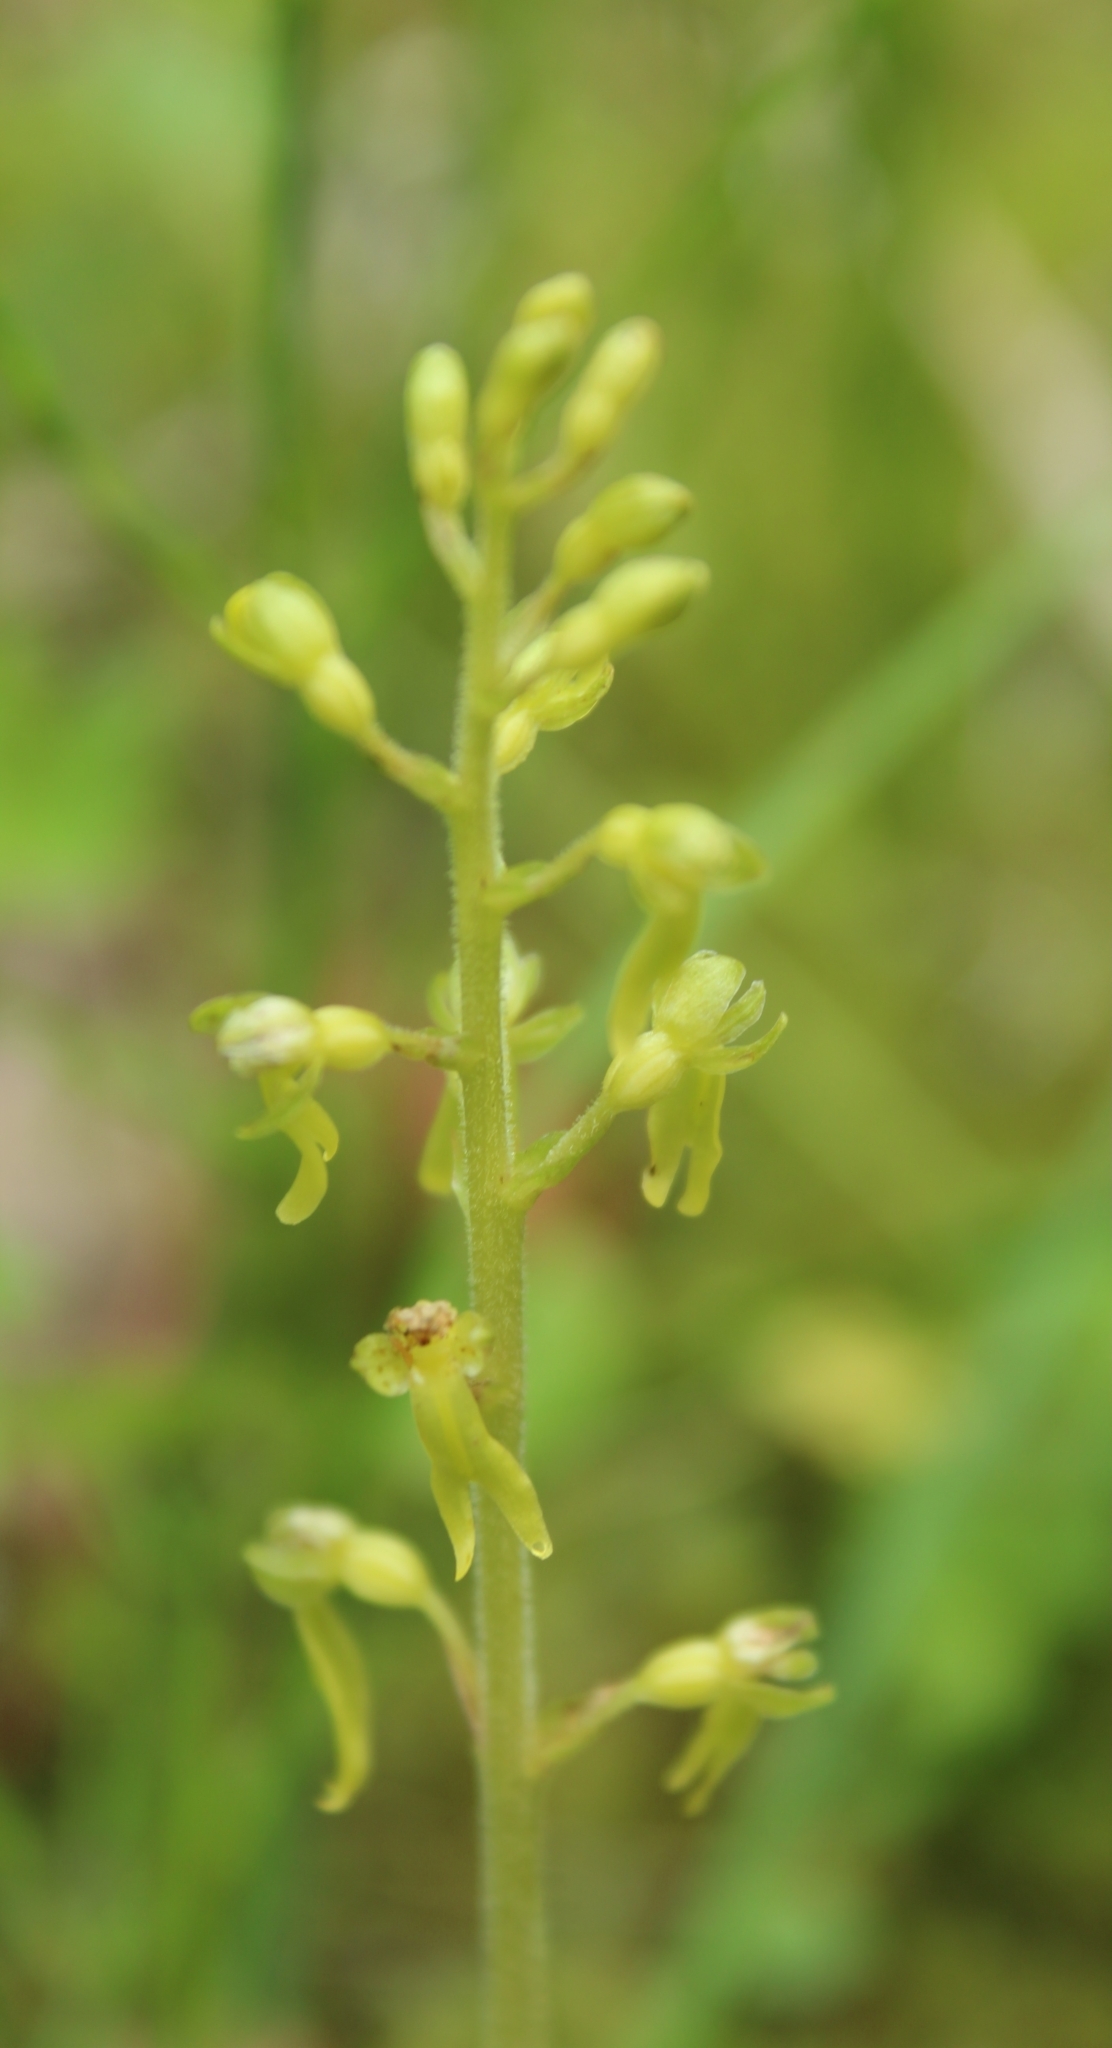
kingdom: Plantae
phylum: Tracheophyta
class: Liliopsida
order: Asparagales
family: Orchidaceae
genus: Neottia
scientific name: Neottia ovata
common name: Common twayblade
